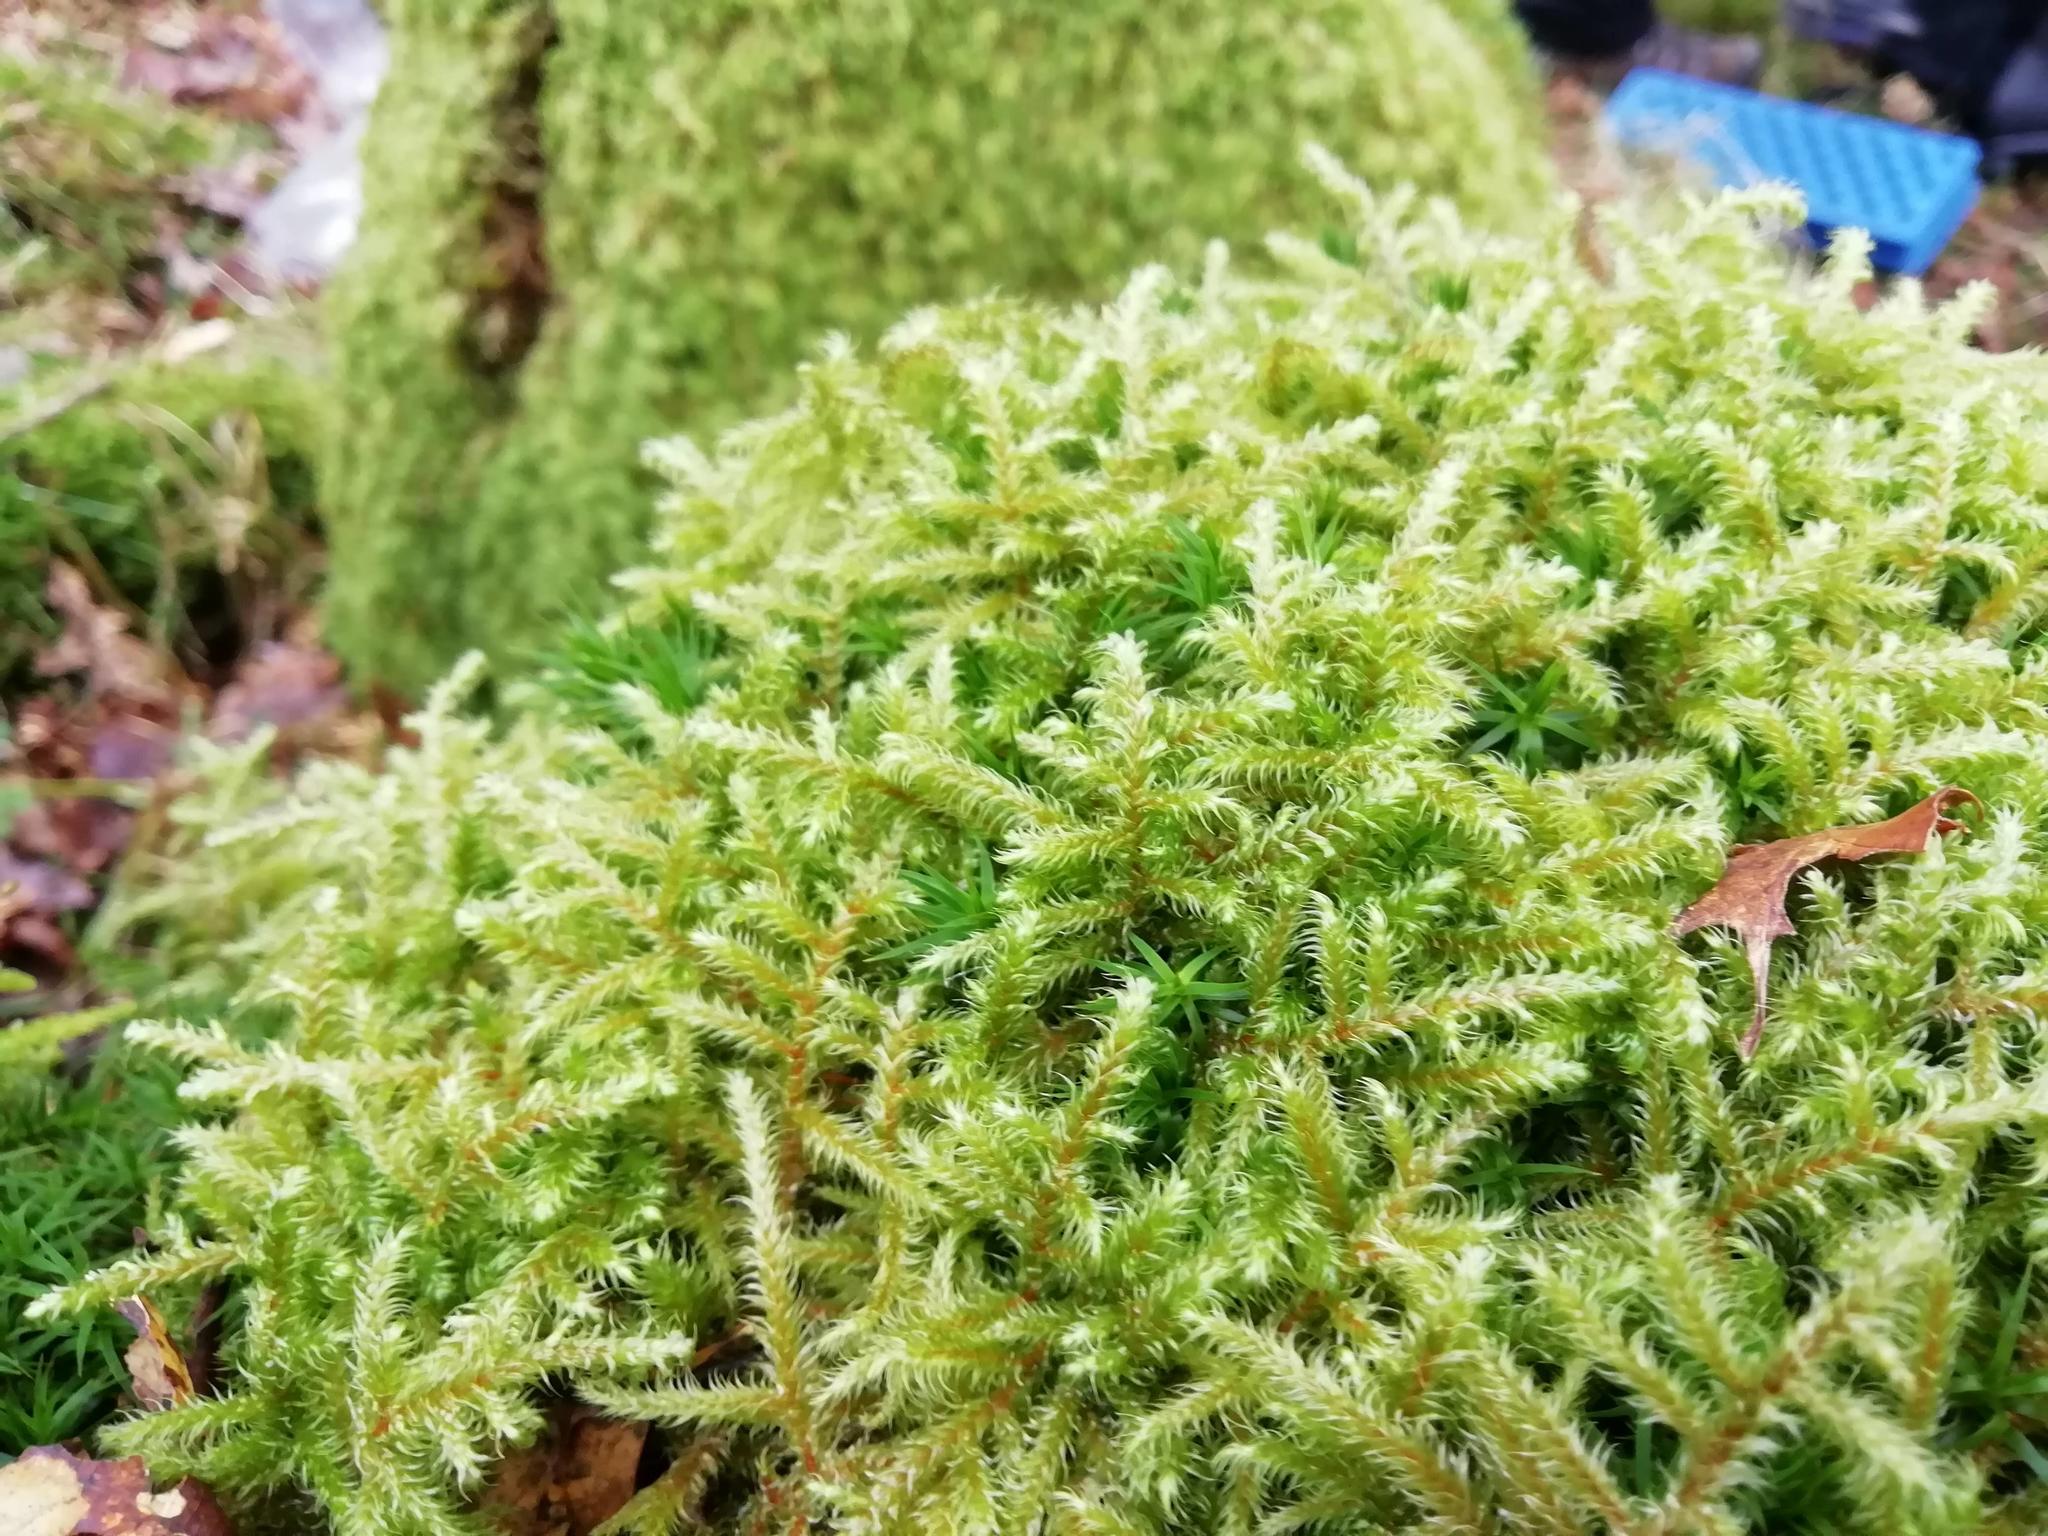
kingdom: Plantae
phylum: Bryophyta
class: Bryopsida
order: Hypnales
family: Hylocomiaceae
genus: Rhytidiadelphus
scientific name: Rhytidiadelphus loreus
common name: Lanky moss
